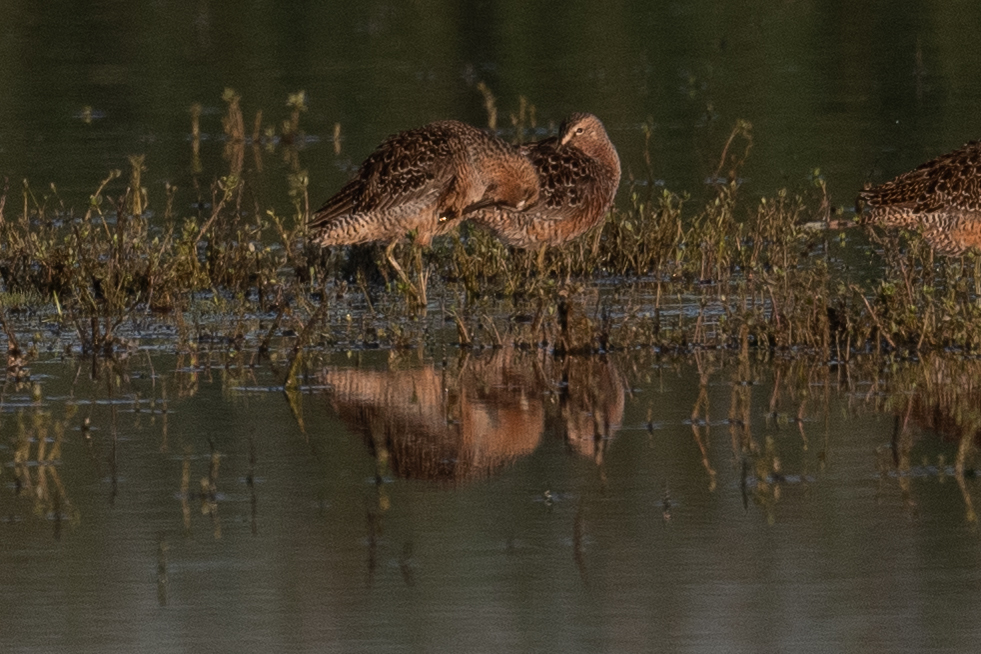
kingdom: Animalia
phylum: Chordata
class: Aves
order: Charadriiformes
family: Scolopacidae
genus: Limnodromus
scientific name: Limnodromus scolopaceus
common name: Long-billed dowitcher
